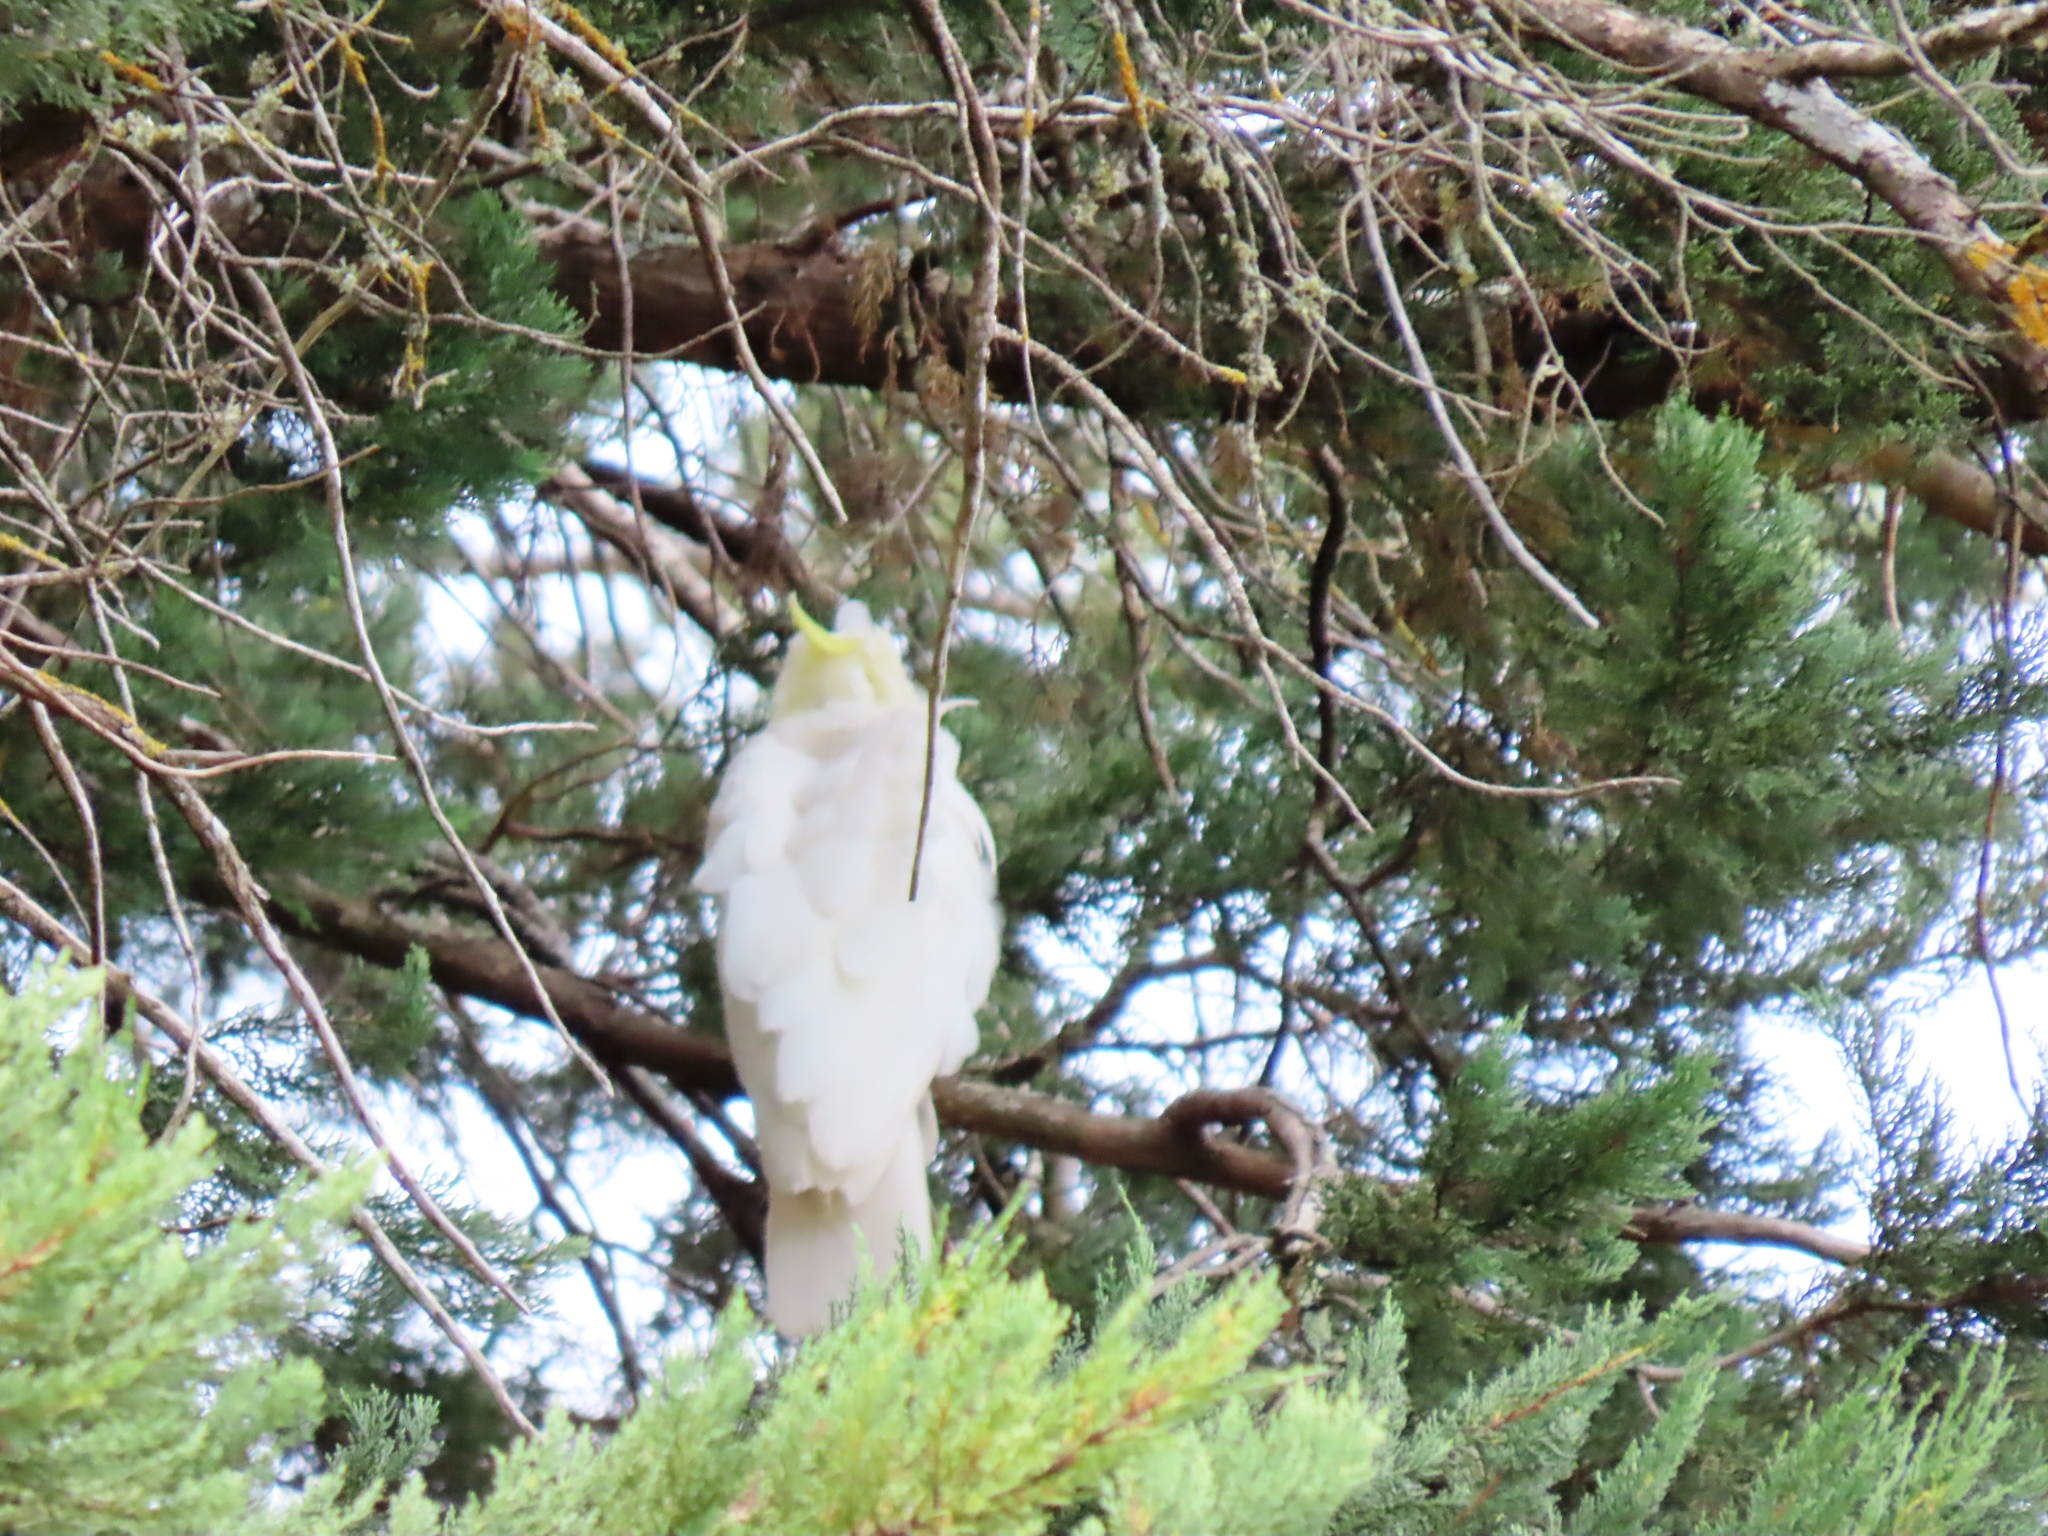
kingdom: Animalia
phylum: Chordata
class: Aves
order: Psittaciformes
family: Psittacidae
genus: Cacatua
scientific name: Cacatua galerita
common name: Sulphur-crested cockatoo
